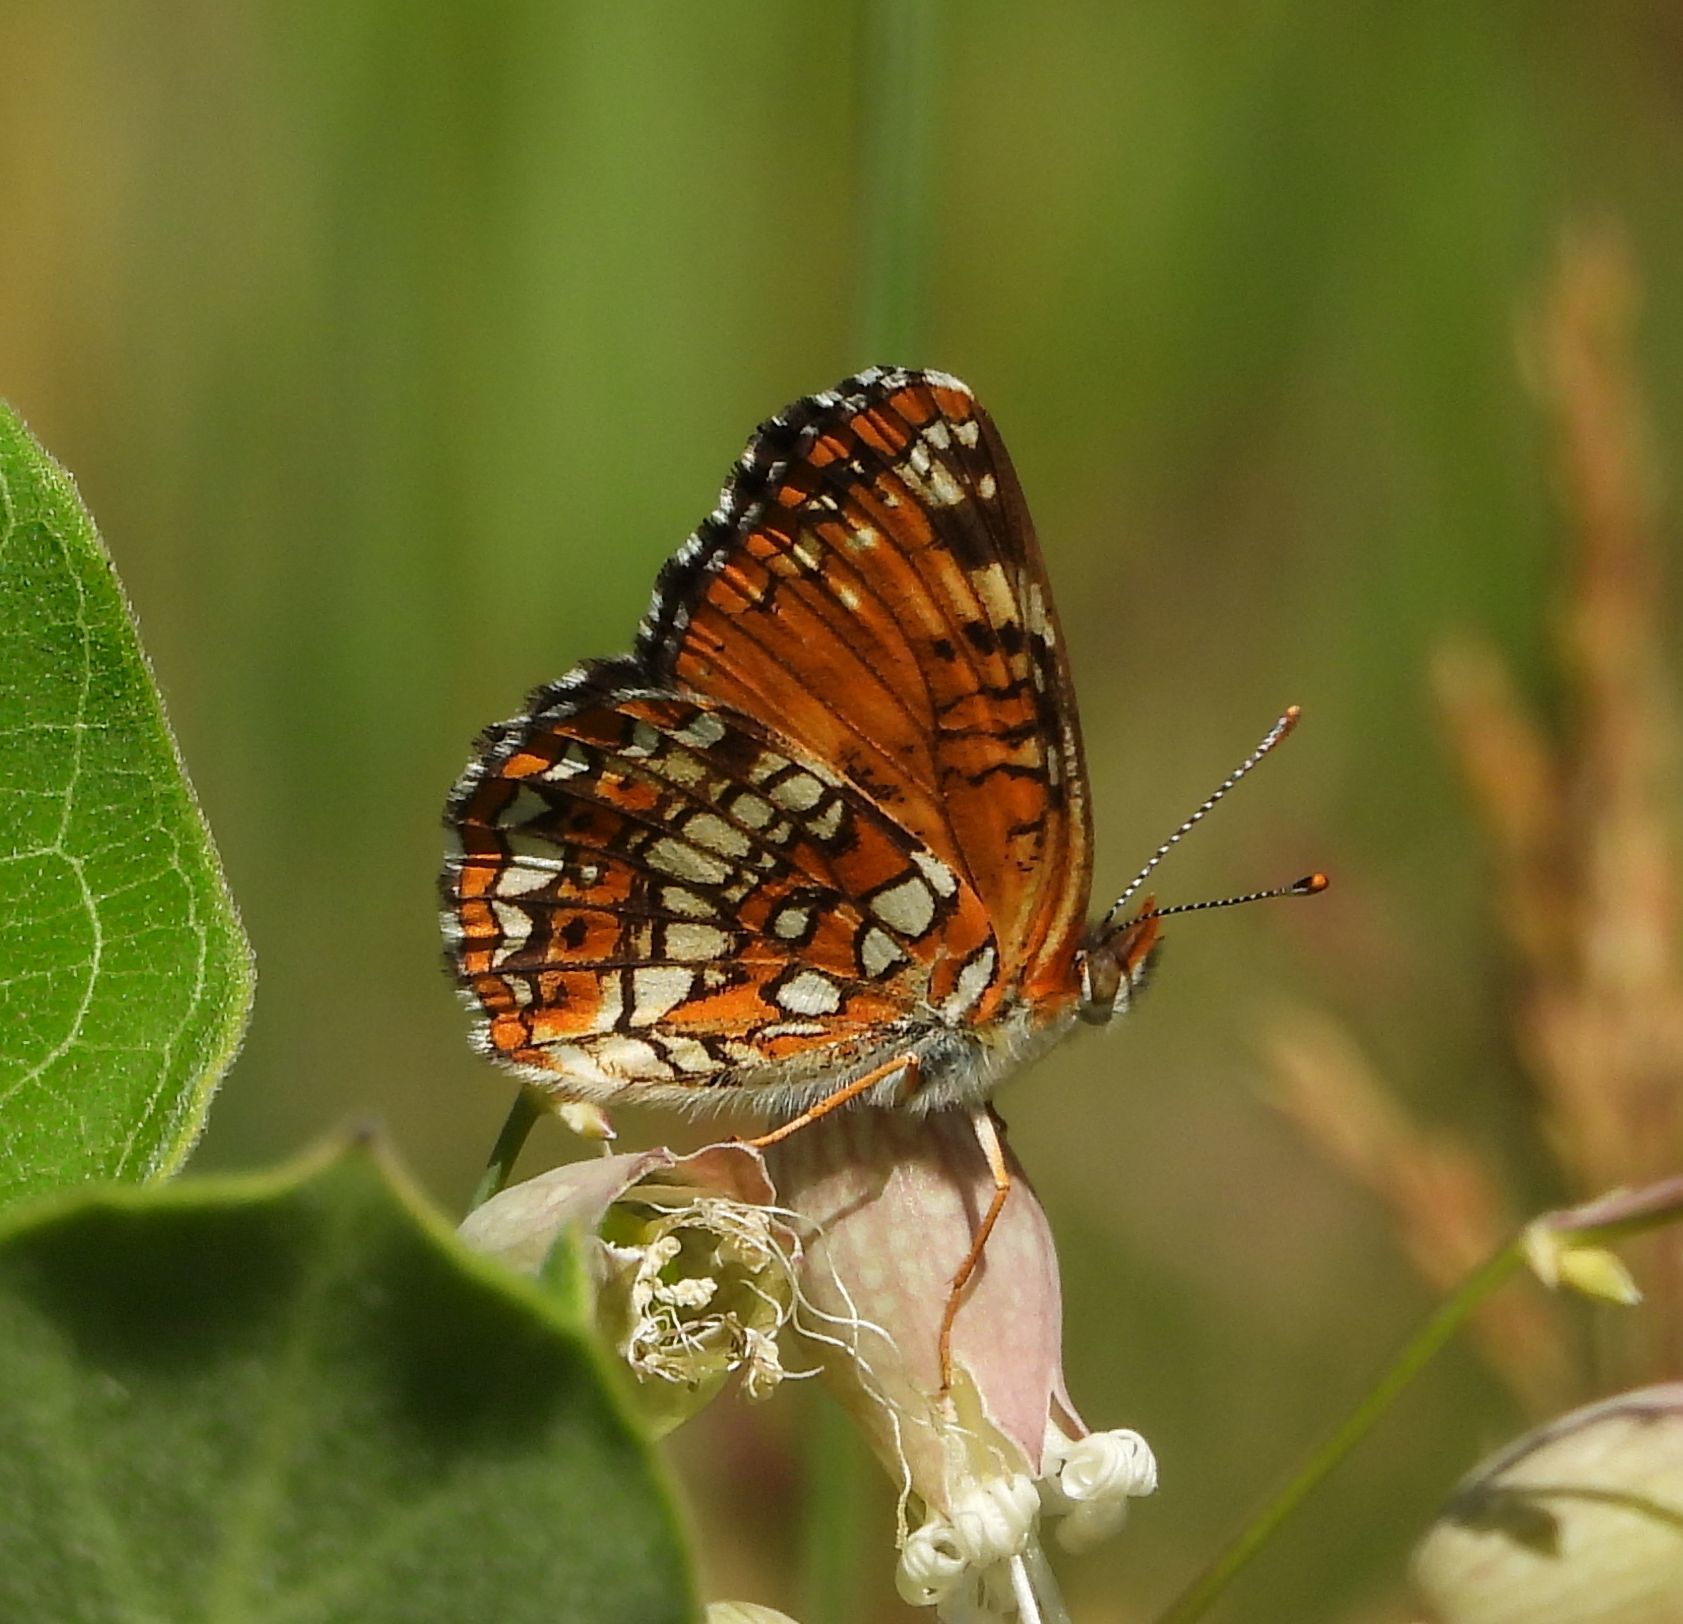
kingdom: Animalia
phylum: Arthropoda
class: Insecta
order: Lepidoptera
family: Nymphalidae
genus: Chlosyne
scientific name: Chlosyne harrisii
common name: Harris's checkerspot
